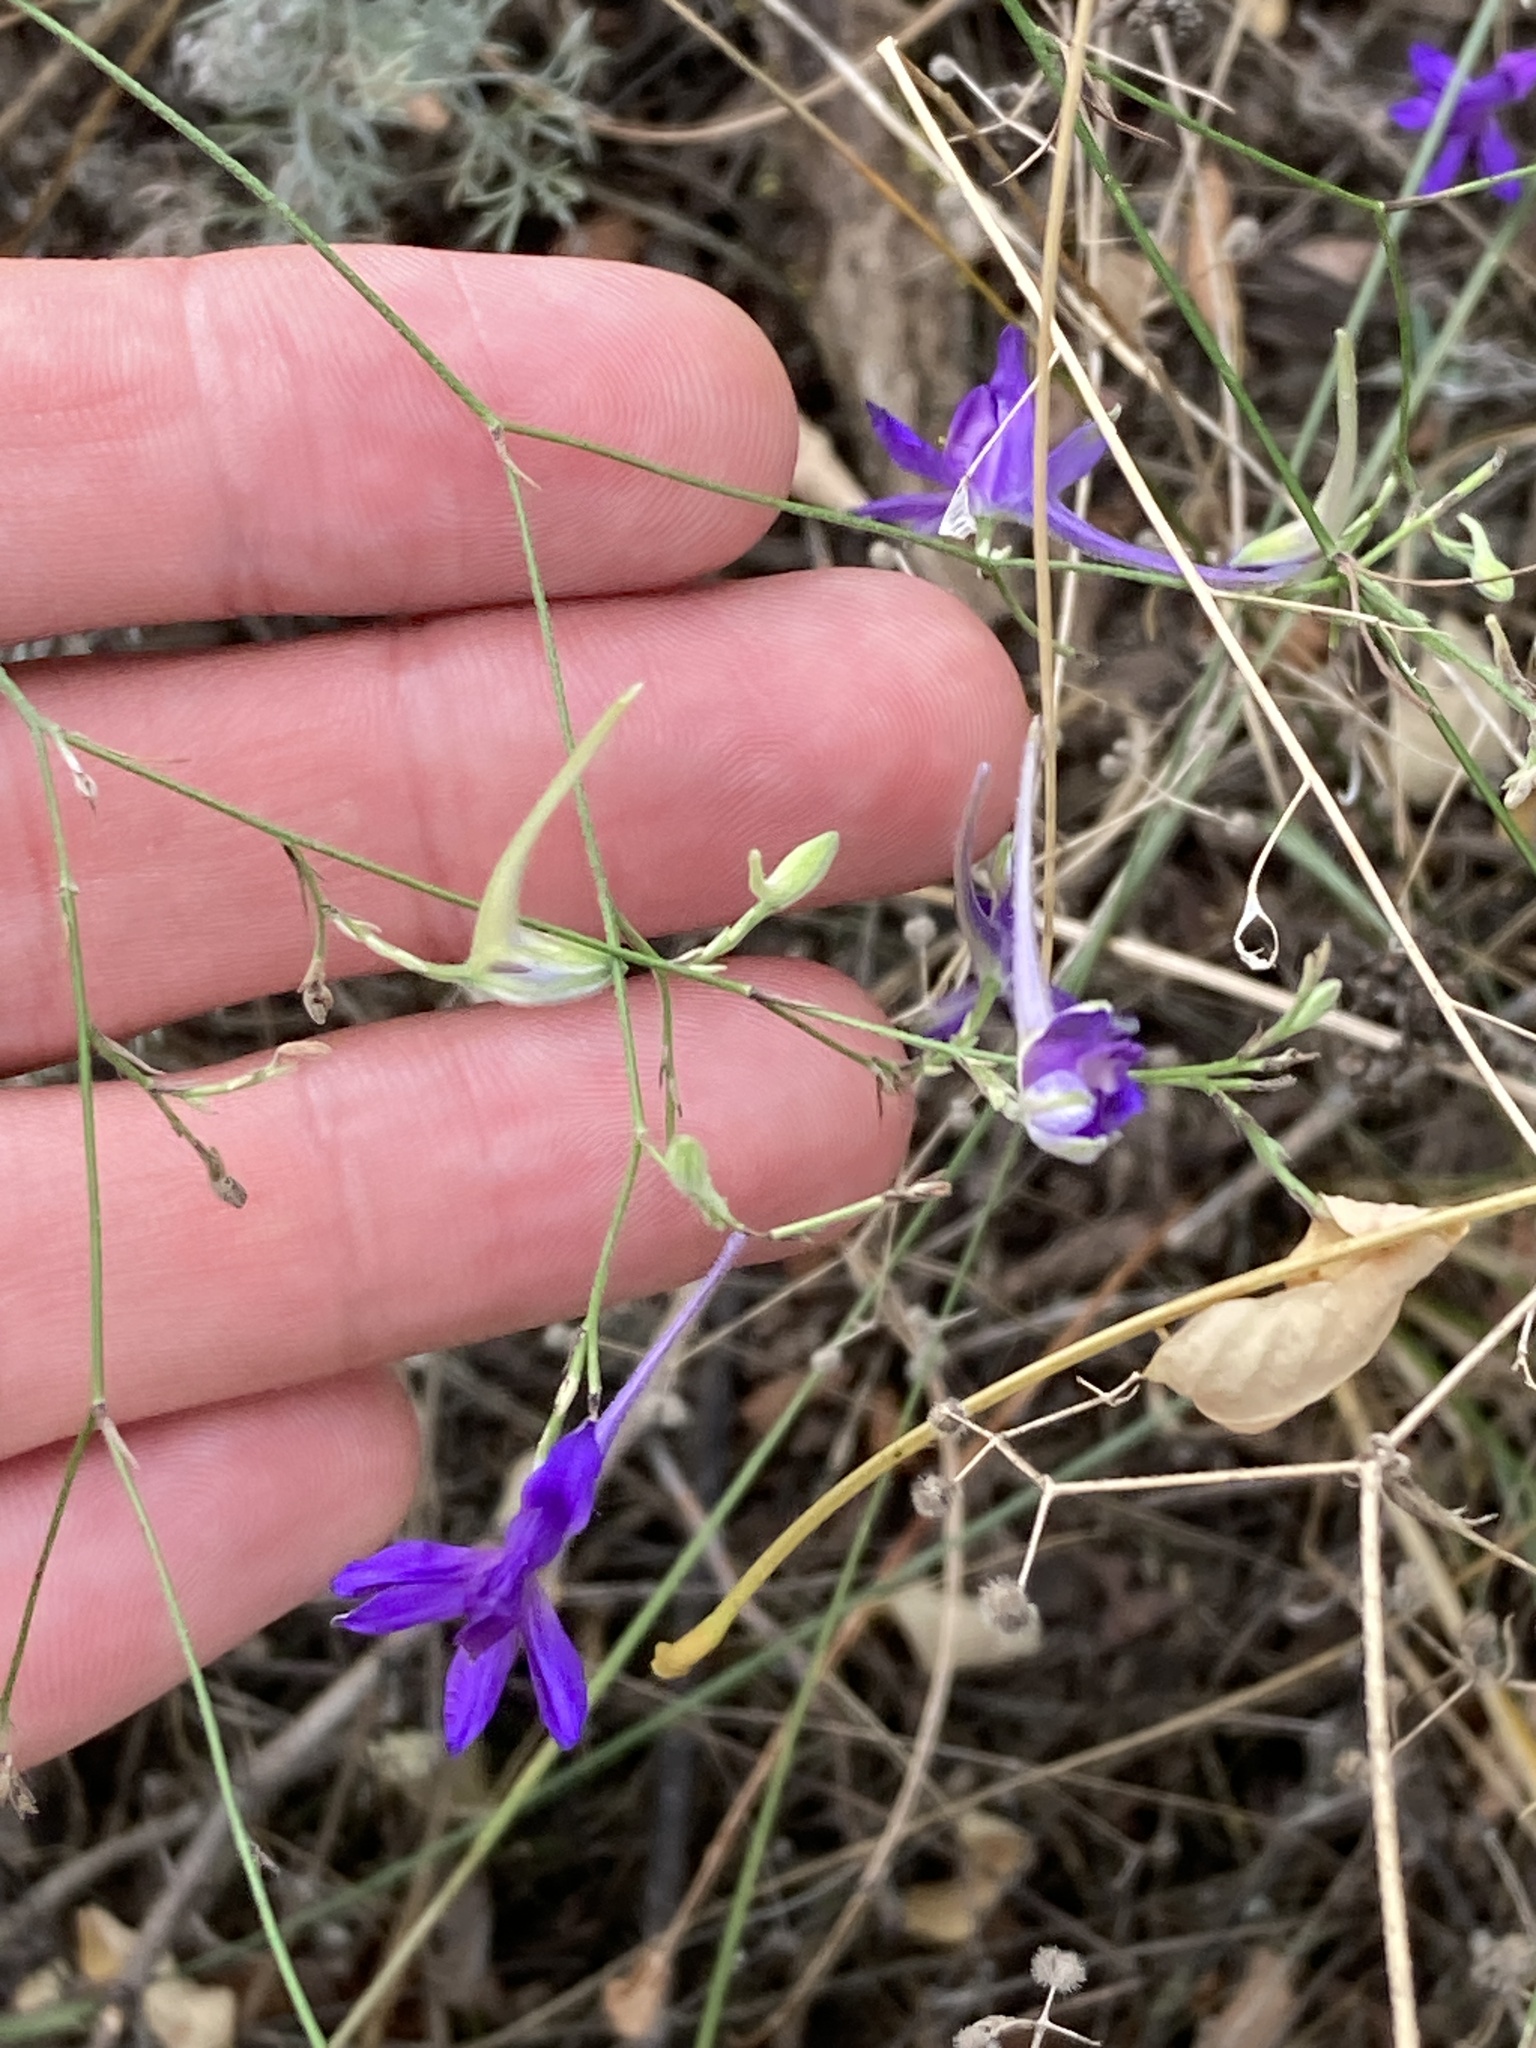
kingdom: Plantae
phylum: Tracheophyta
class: Magnoliopsida
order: Ranunculales
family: Ranunculaceae
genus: Delphinium
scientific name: Delphinium consolida
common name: Branching larkspur
